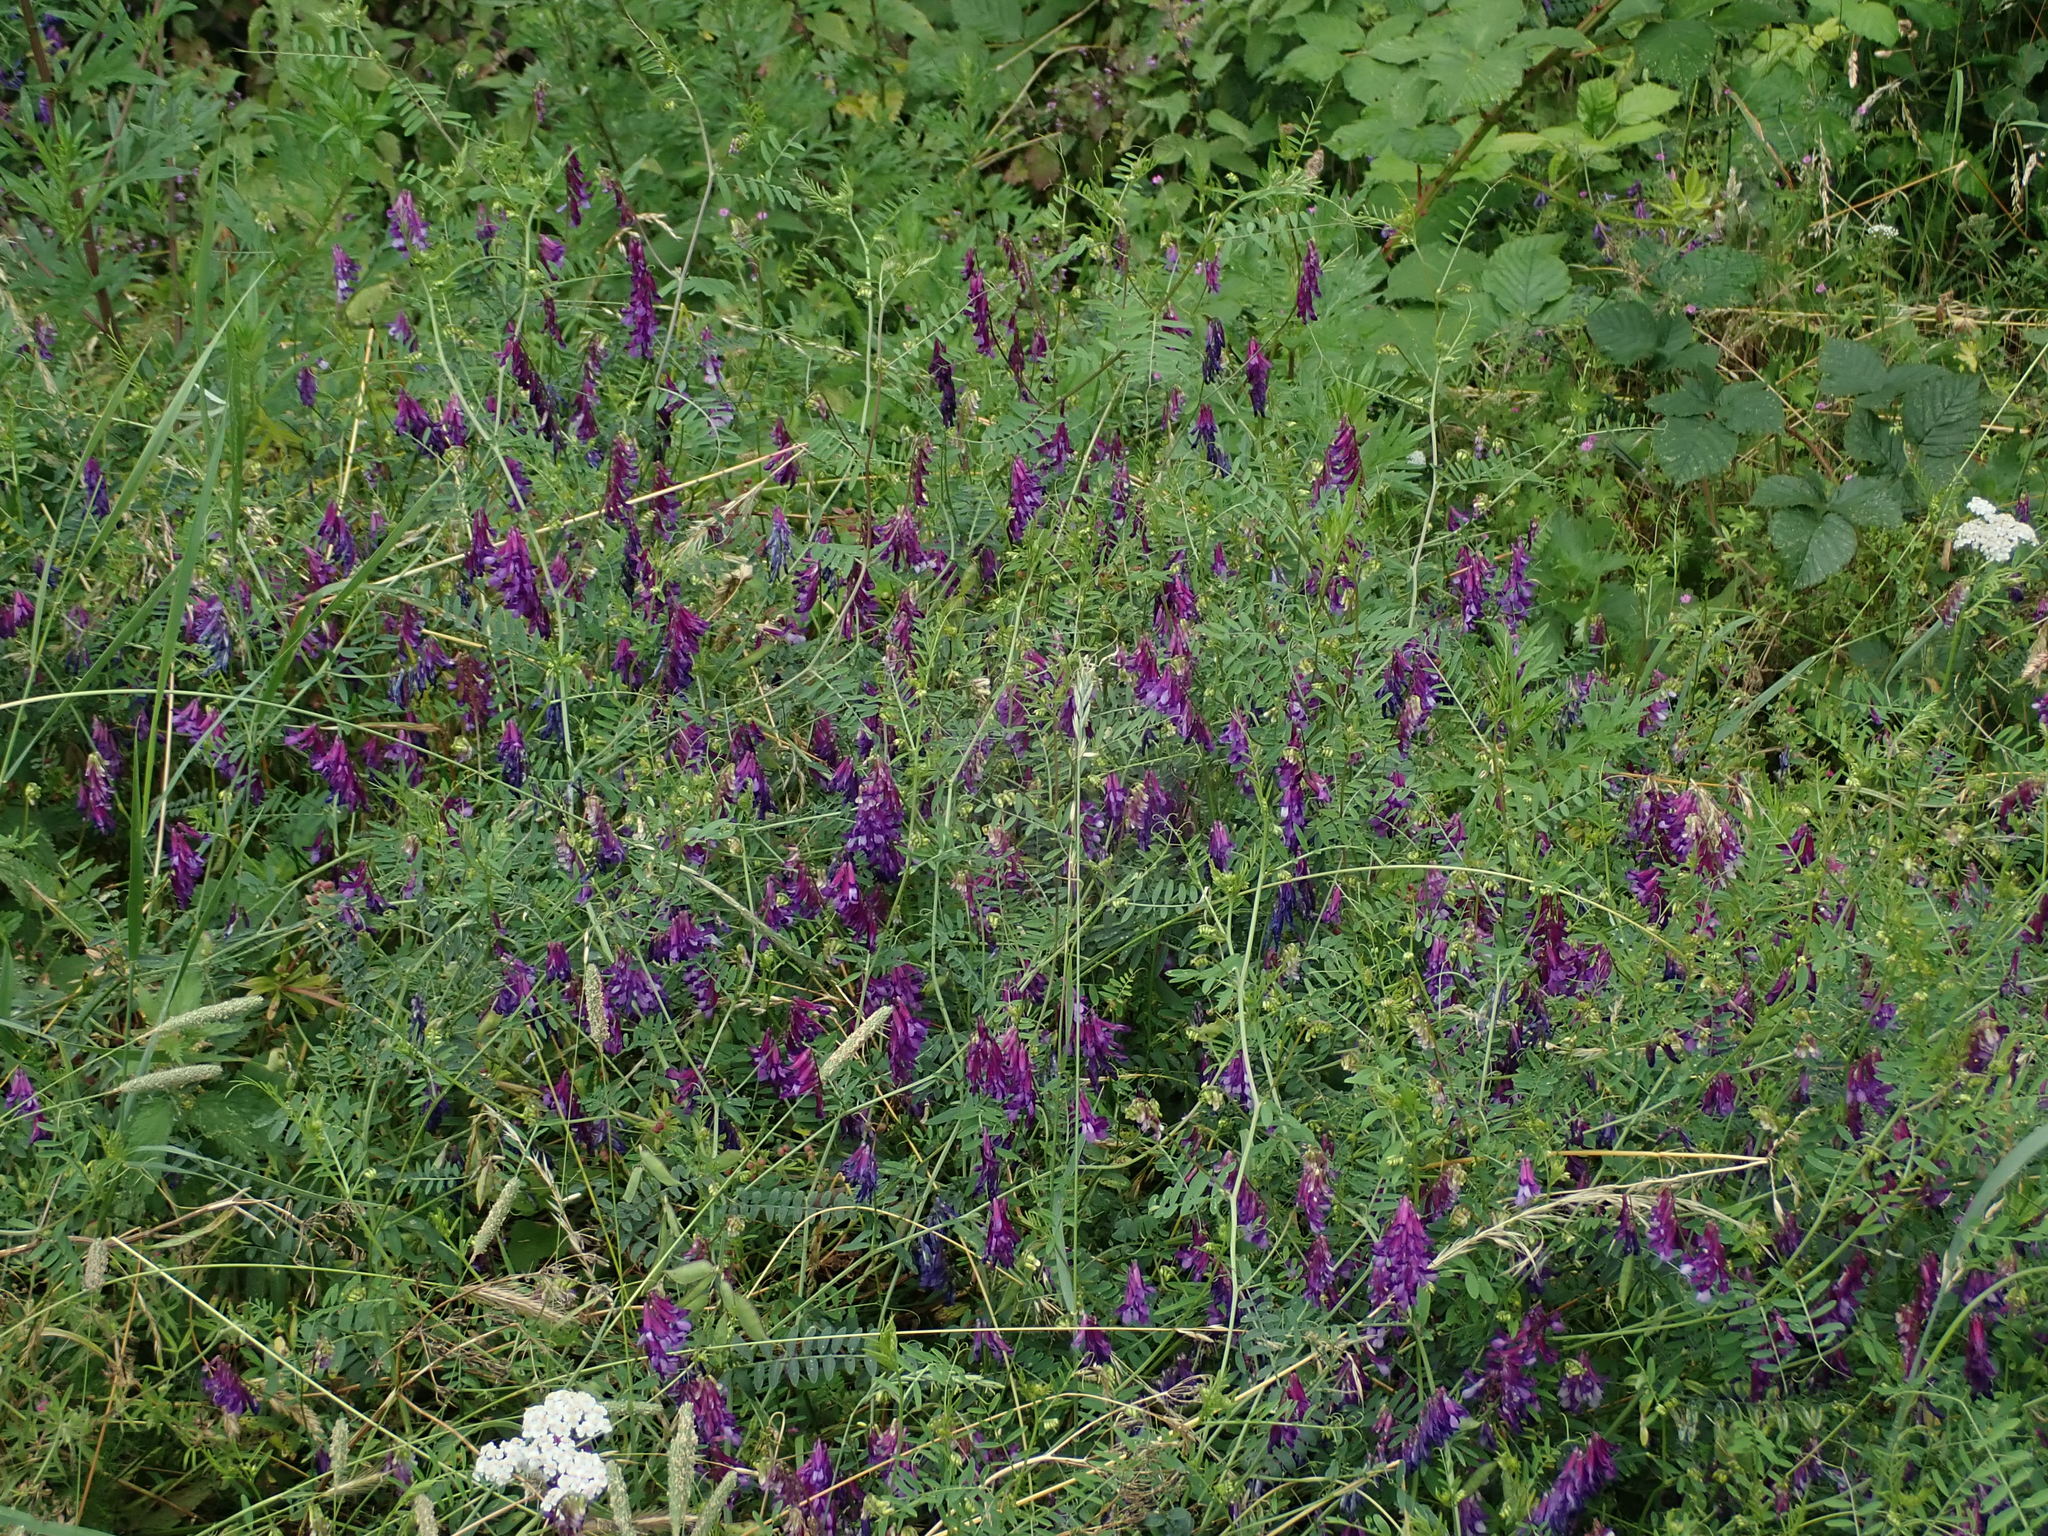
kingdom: Plantae
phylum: Tracheophyta
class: Magnoliopsida
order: Fabales
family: Fabaceae
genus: Vicia
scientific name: Vicia villosa
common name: Fodder vetch
